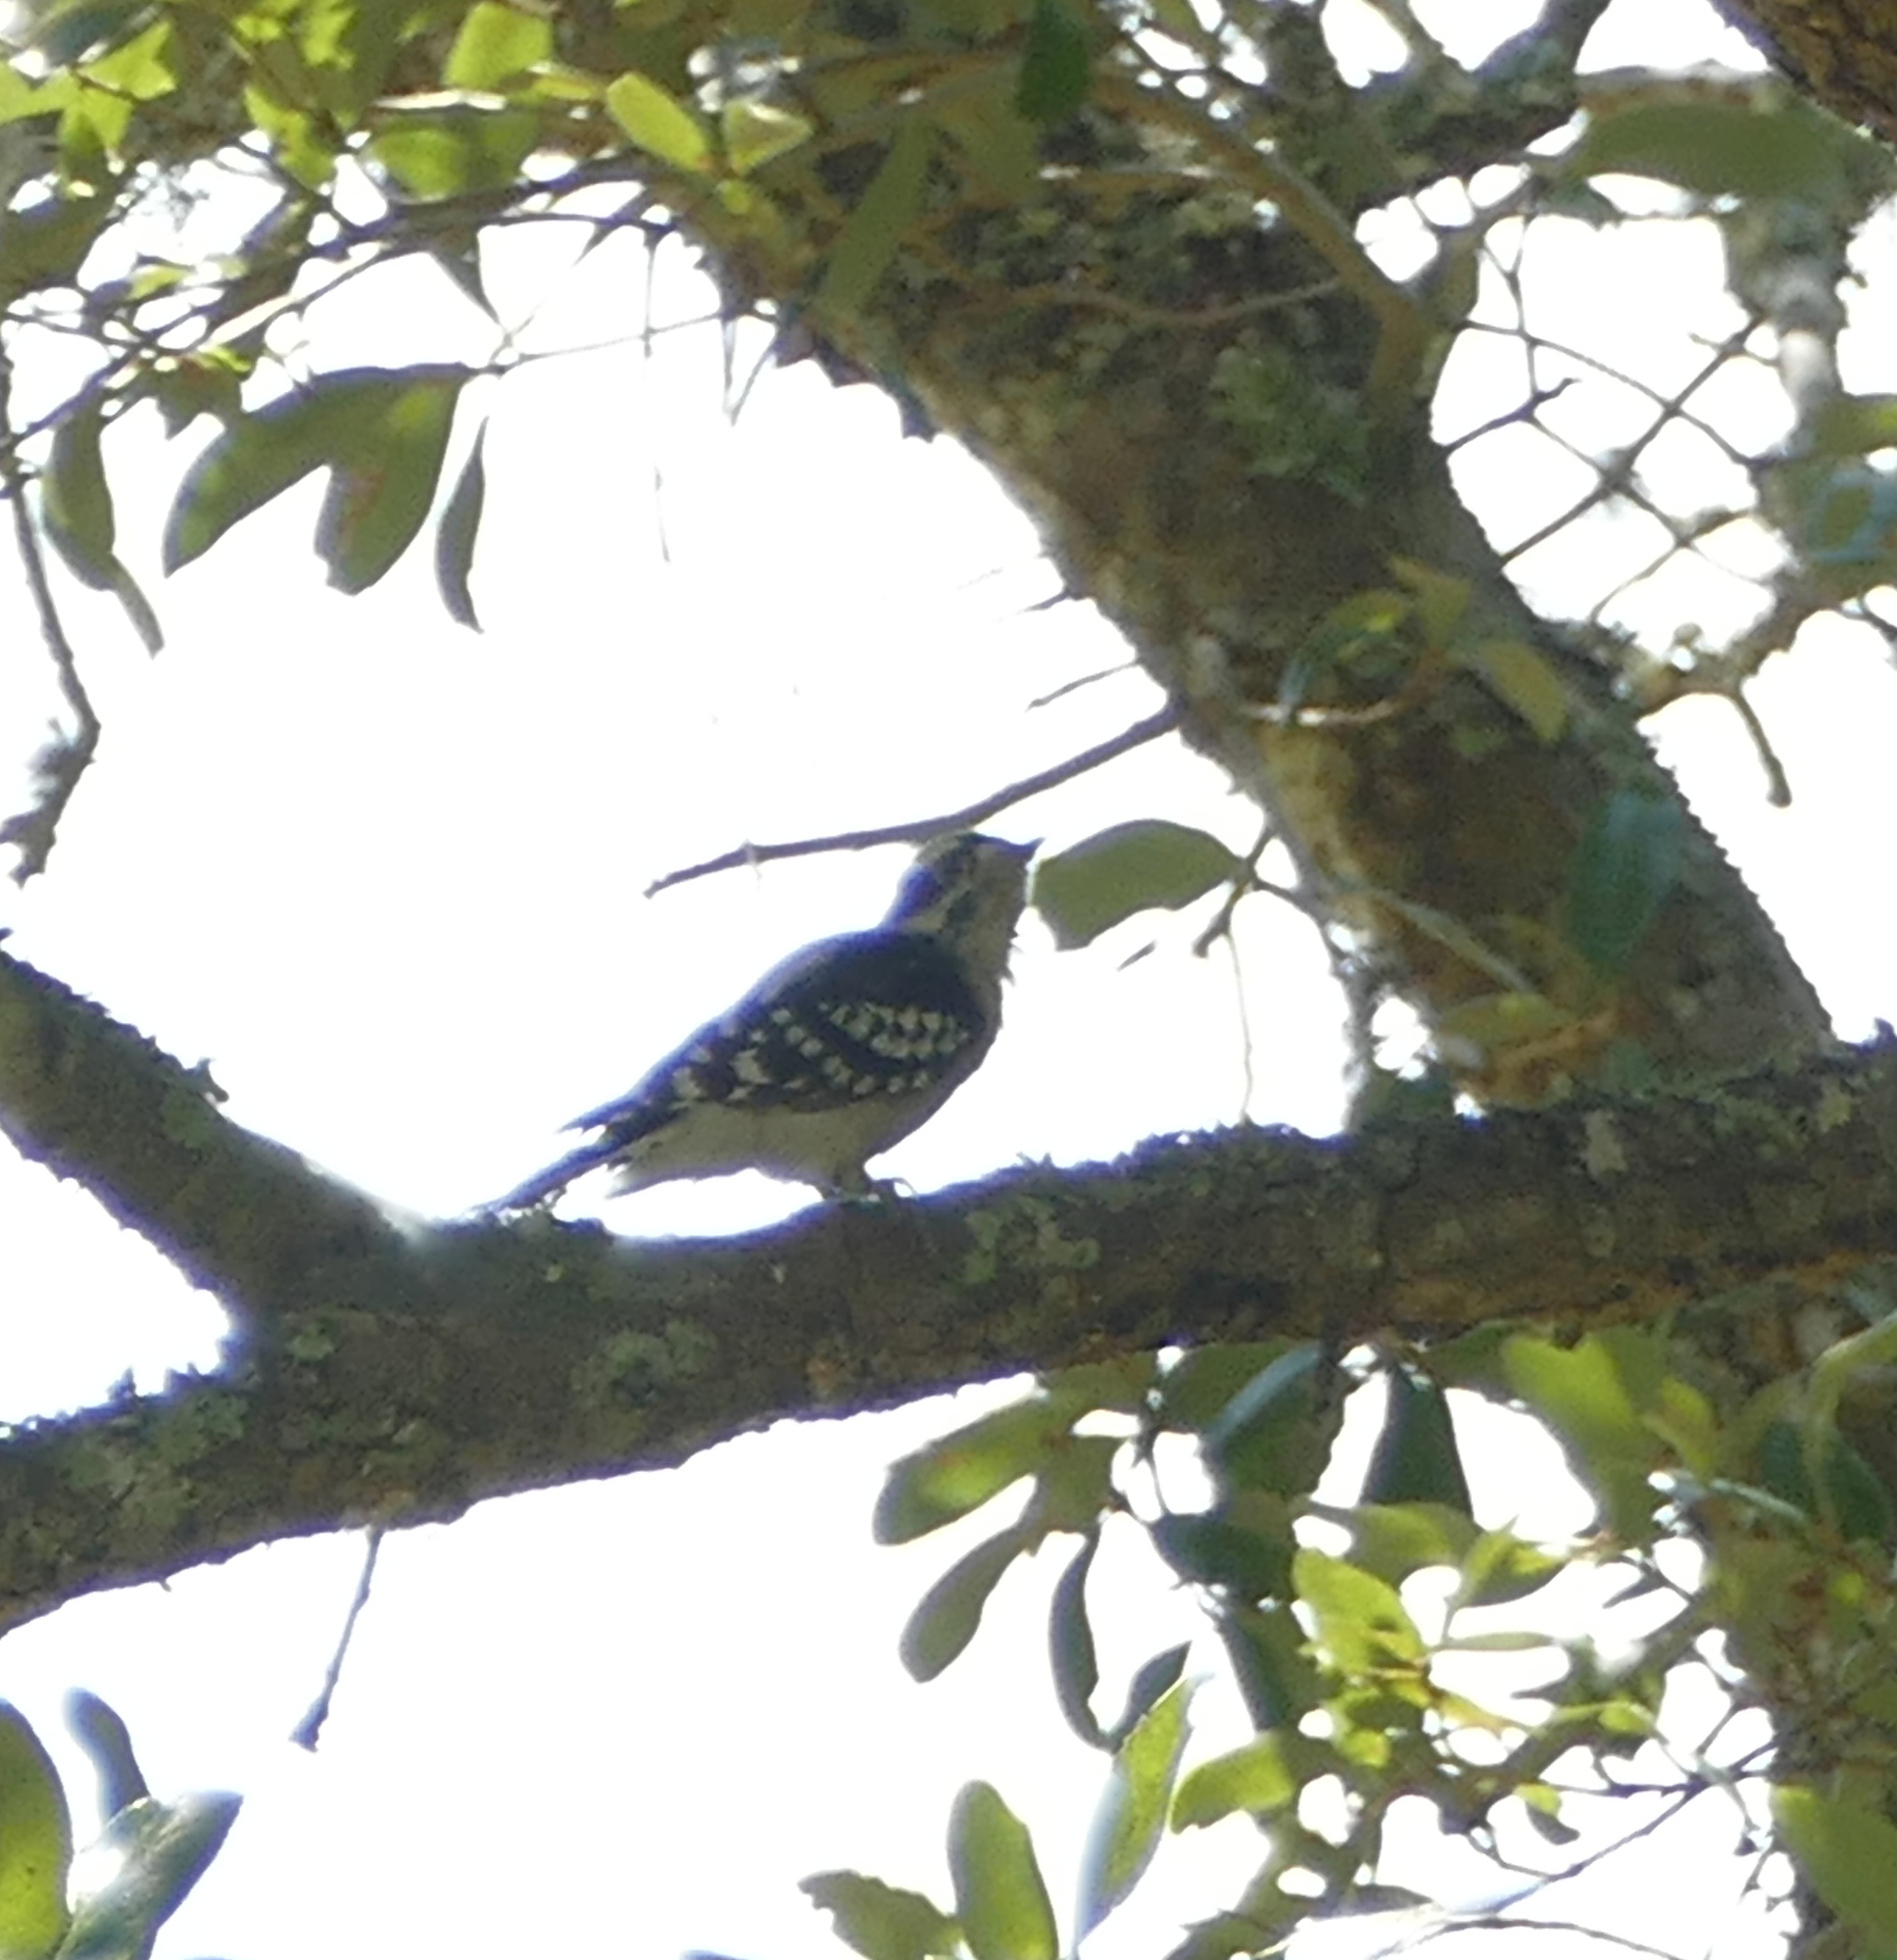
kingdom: Animalia
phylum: Chordata
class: Aves
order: Piciformes
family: Picidae
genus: Dryobates
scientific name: Dryobates pubescens
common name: Downy woodpecker
